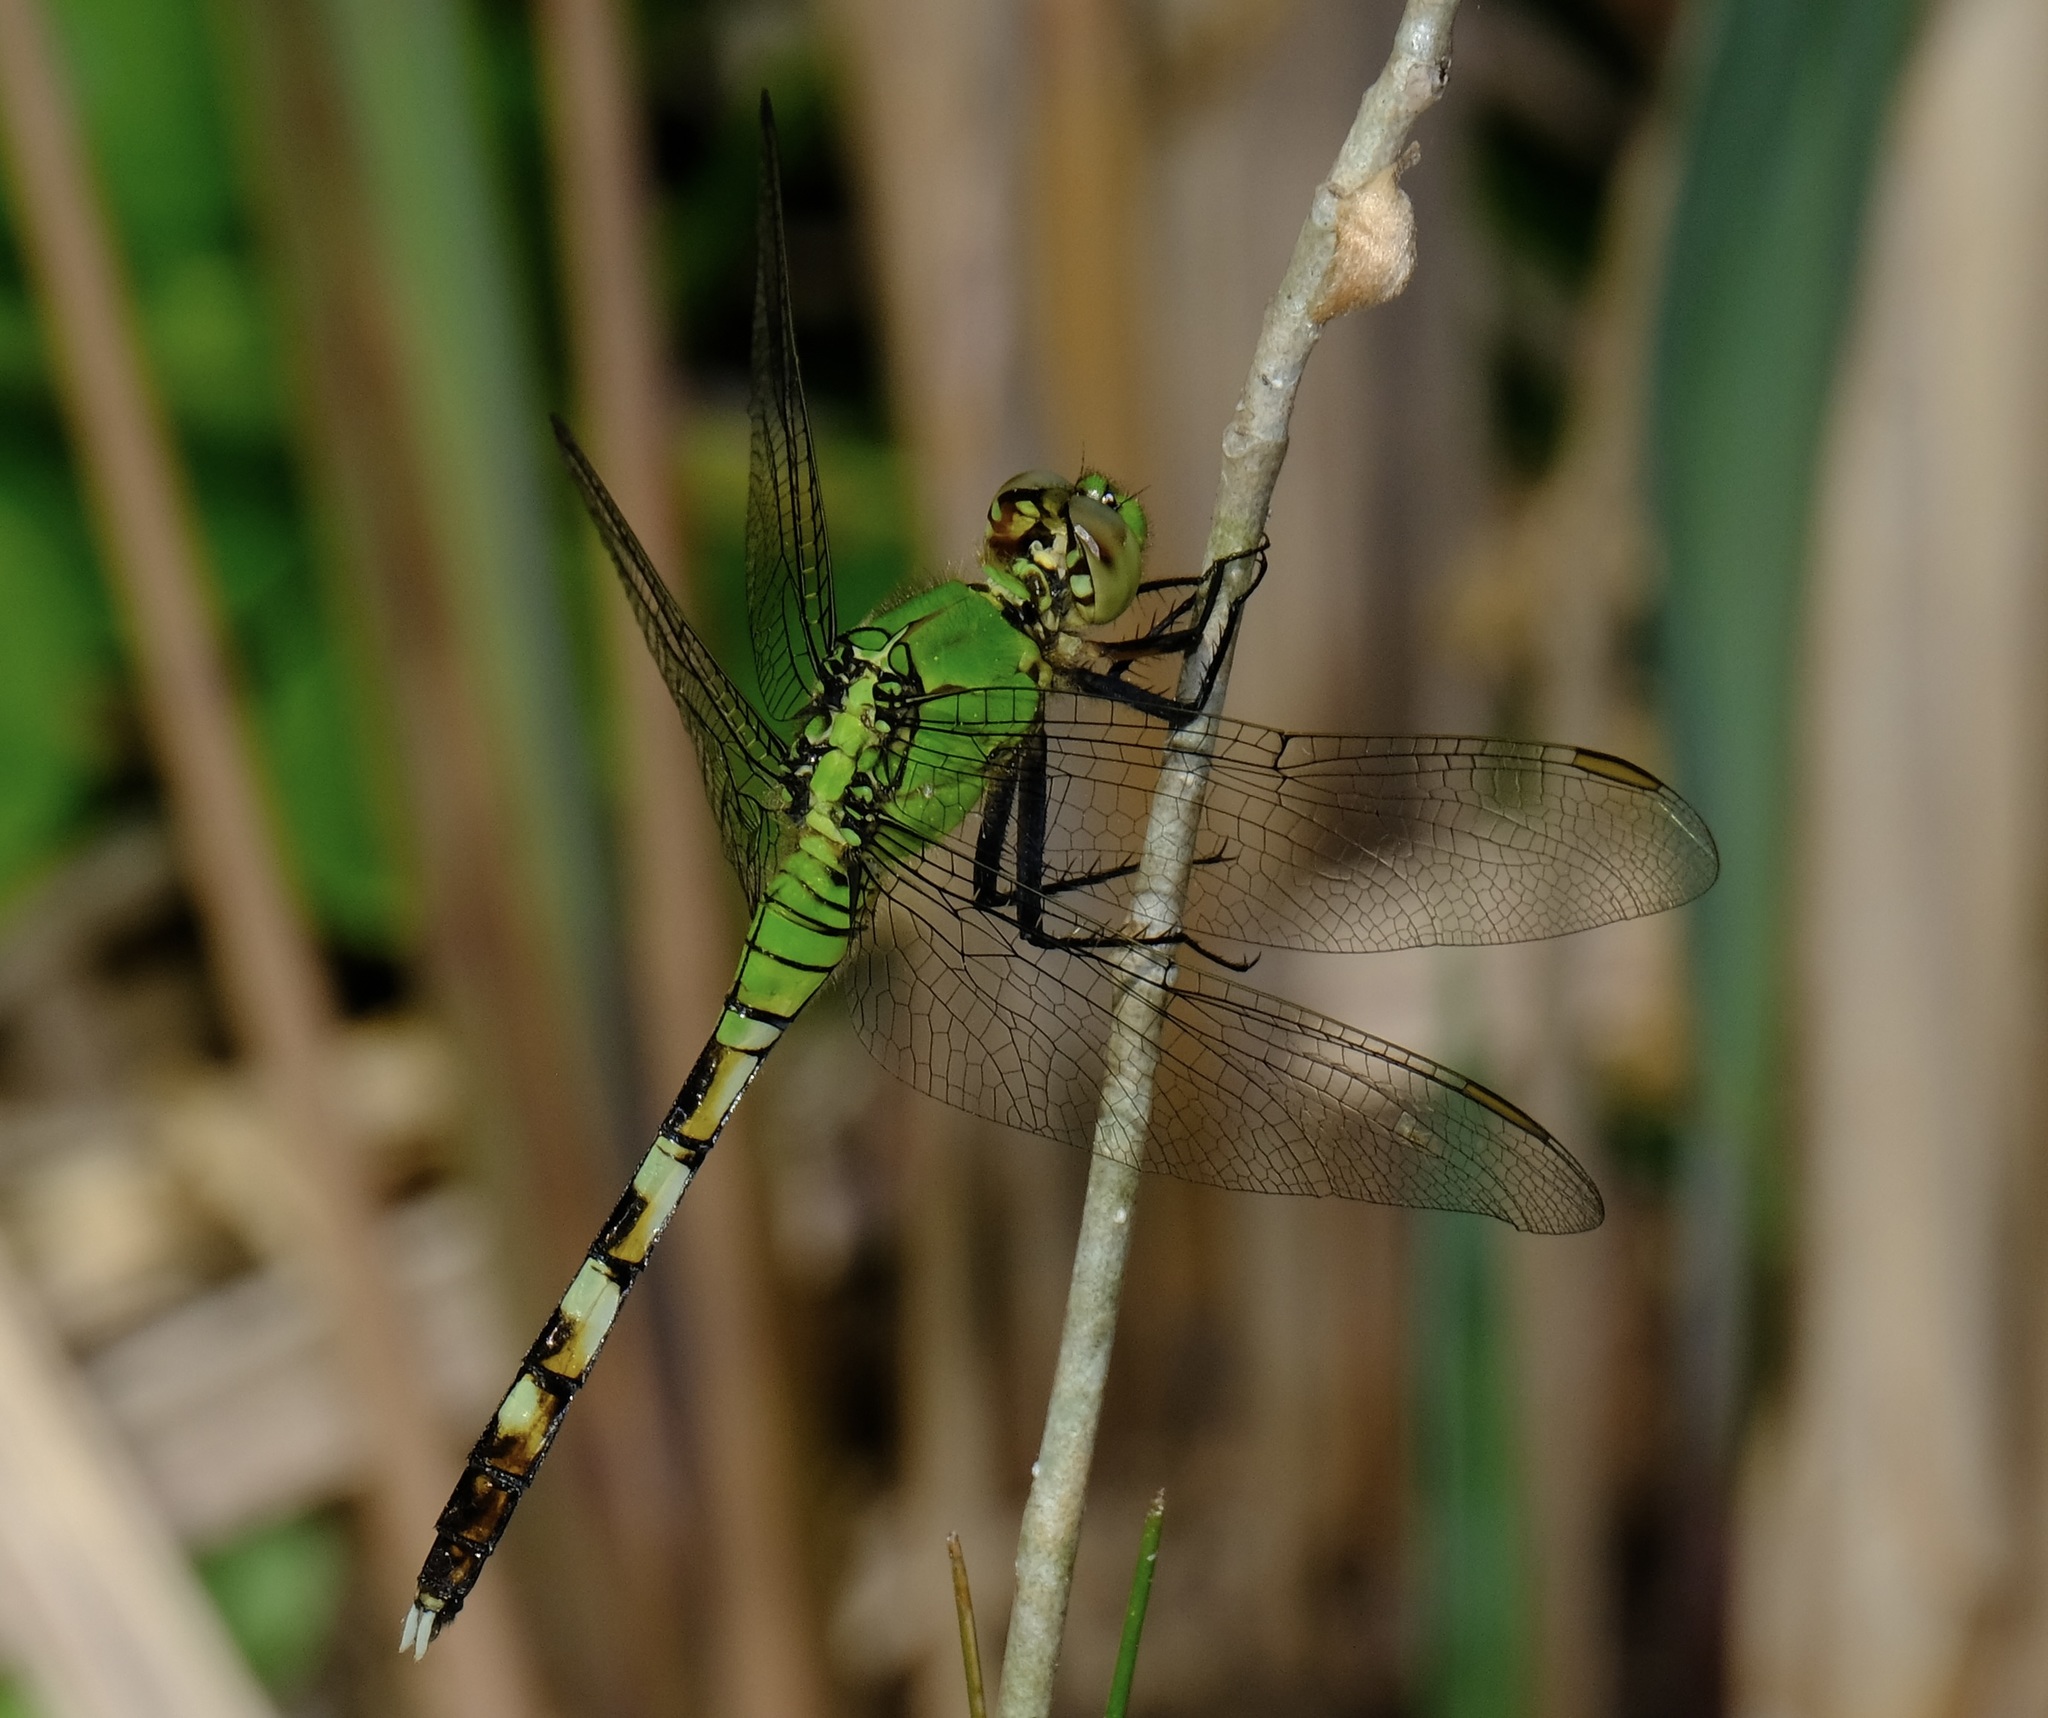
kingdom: Animalia
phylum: Arthropoda
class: Insecta
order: Odonata
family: Libellulidae
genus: Erythemis
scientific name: Erythemis simplicicollis
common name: Eastern pondhawk
